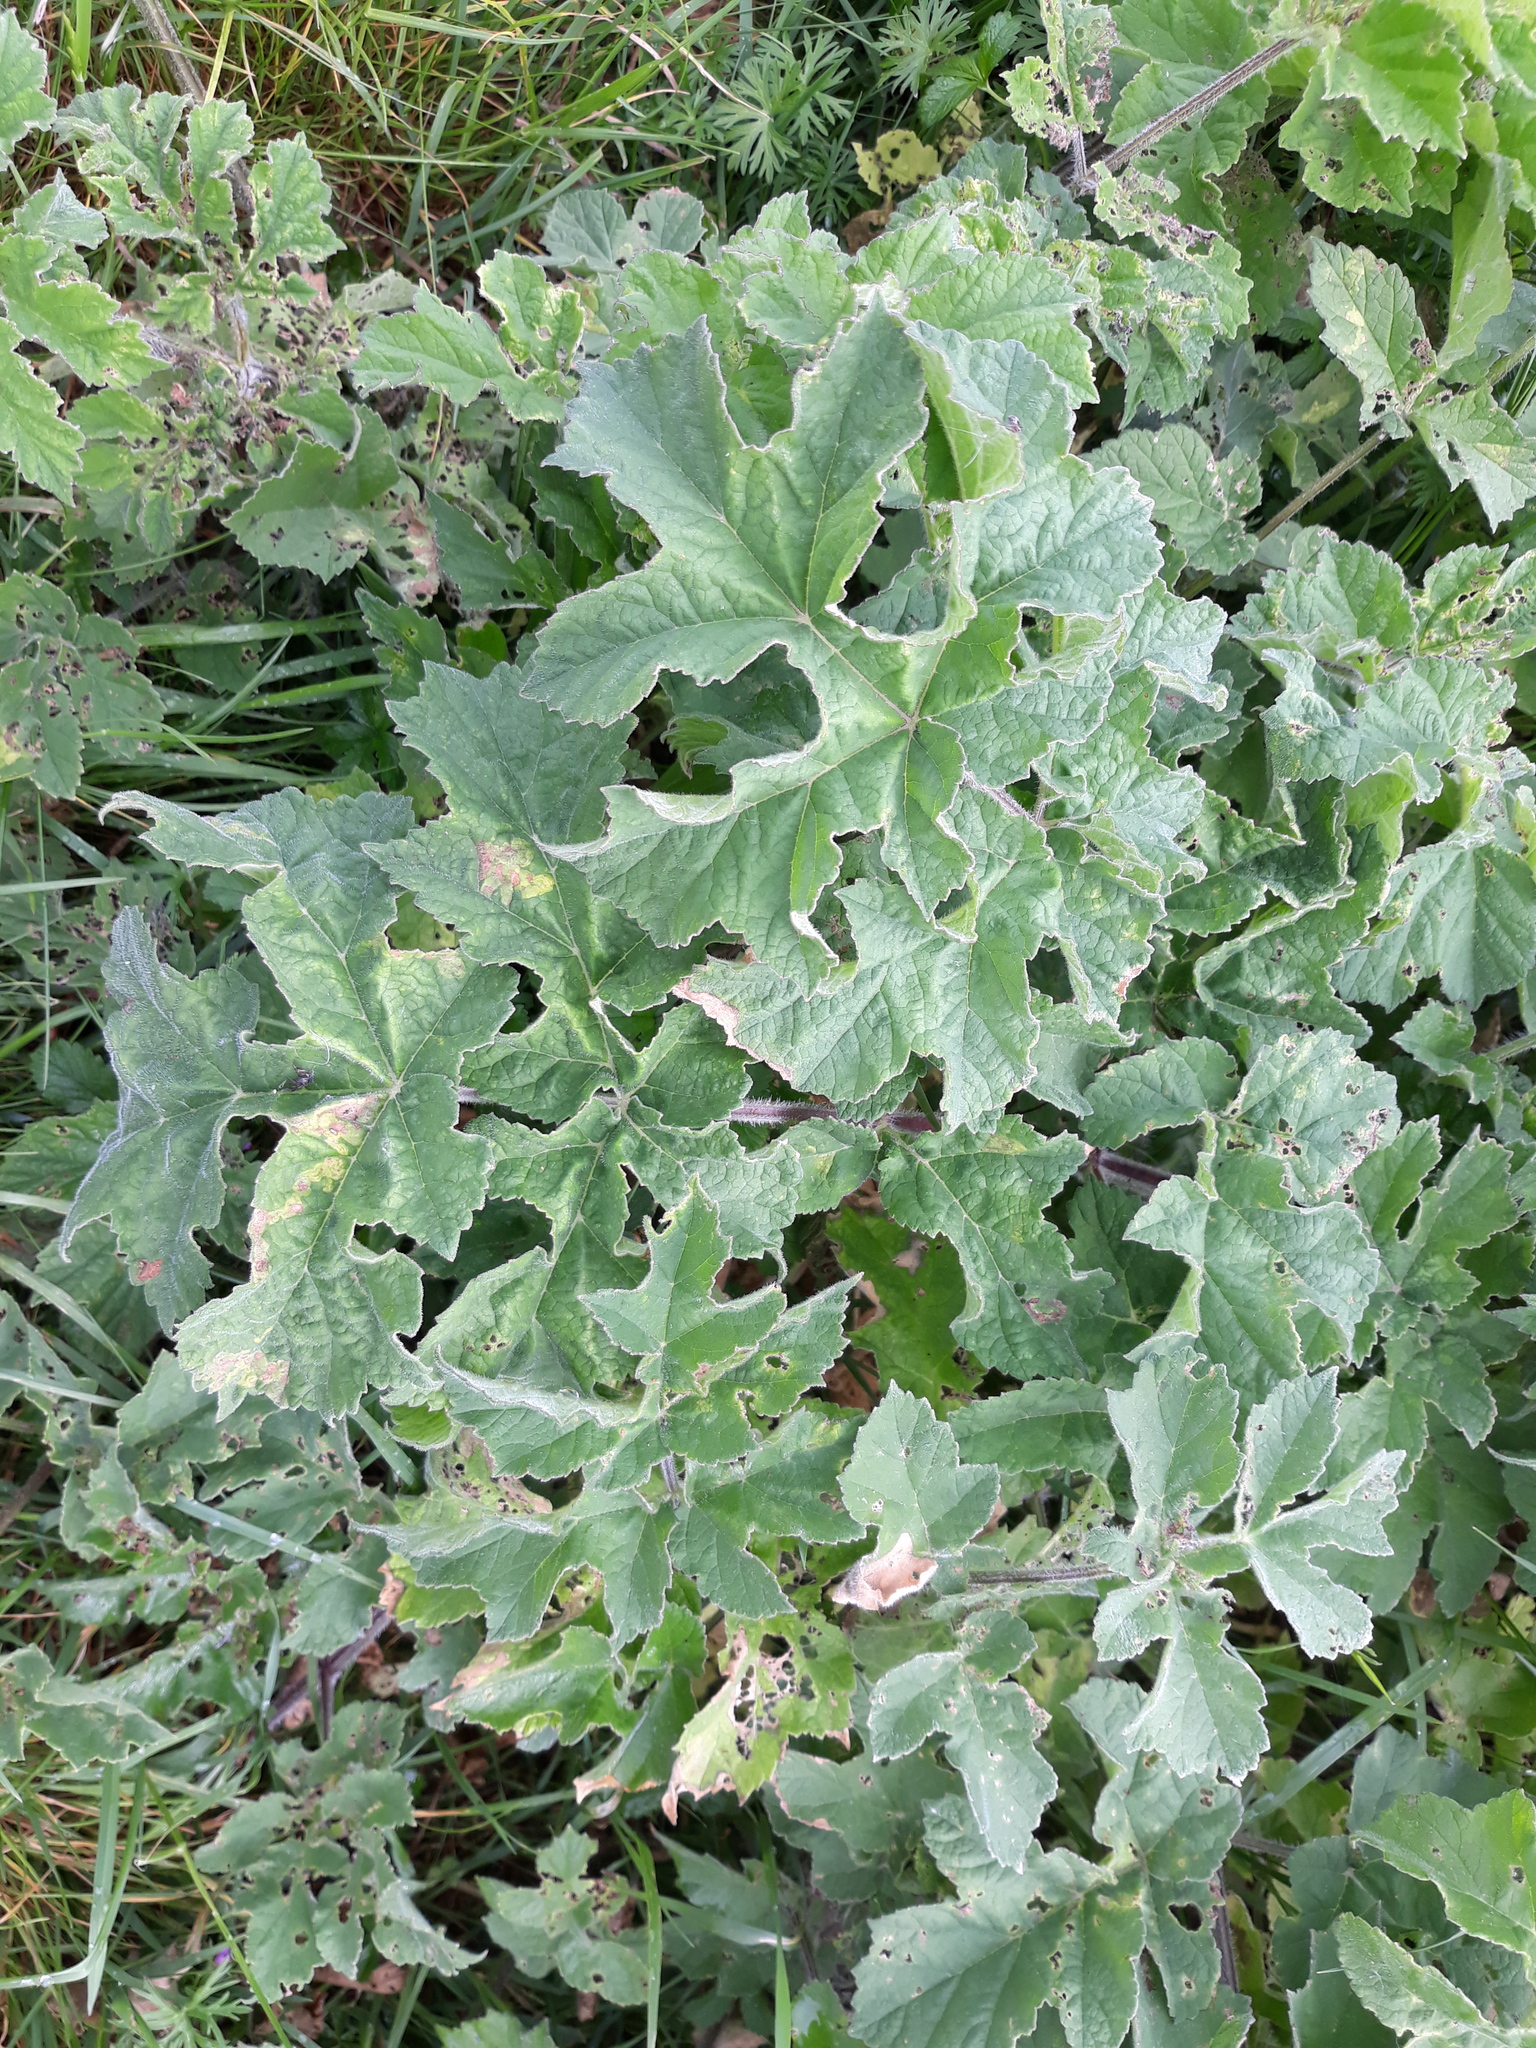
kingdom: Plantae
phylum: Tracheophyta
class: Magnoliopsida
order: Apiales
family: Apiaceae
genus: Heracleum
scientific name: Heracleum sphondylium
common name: Hogweed
